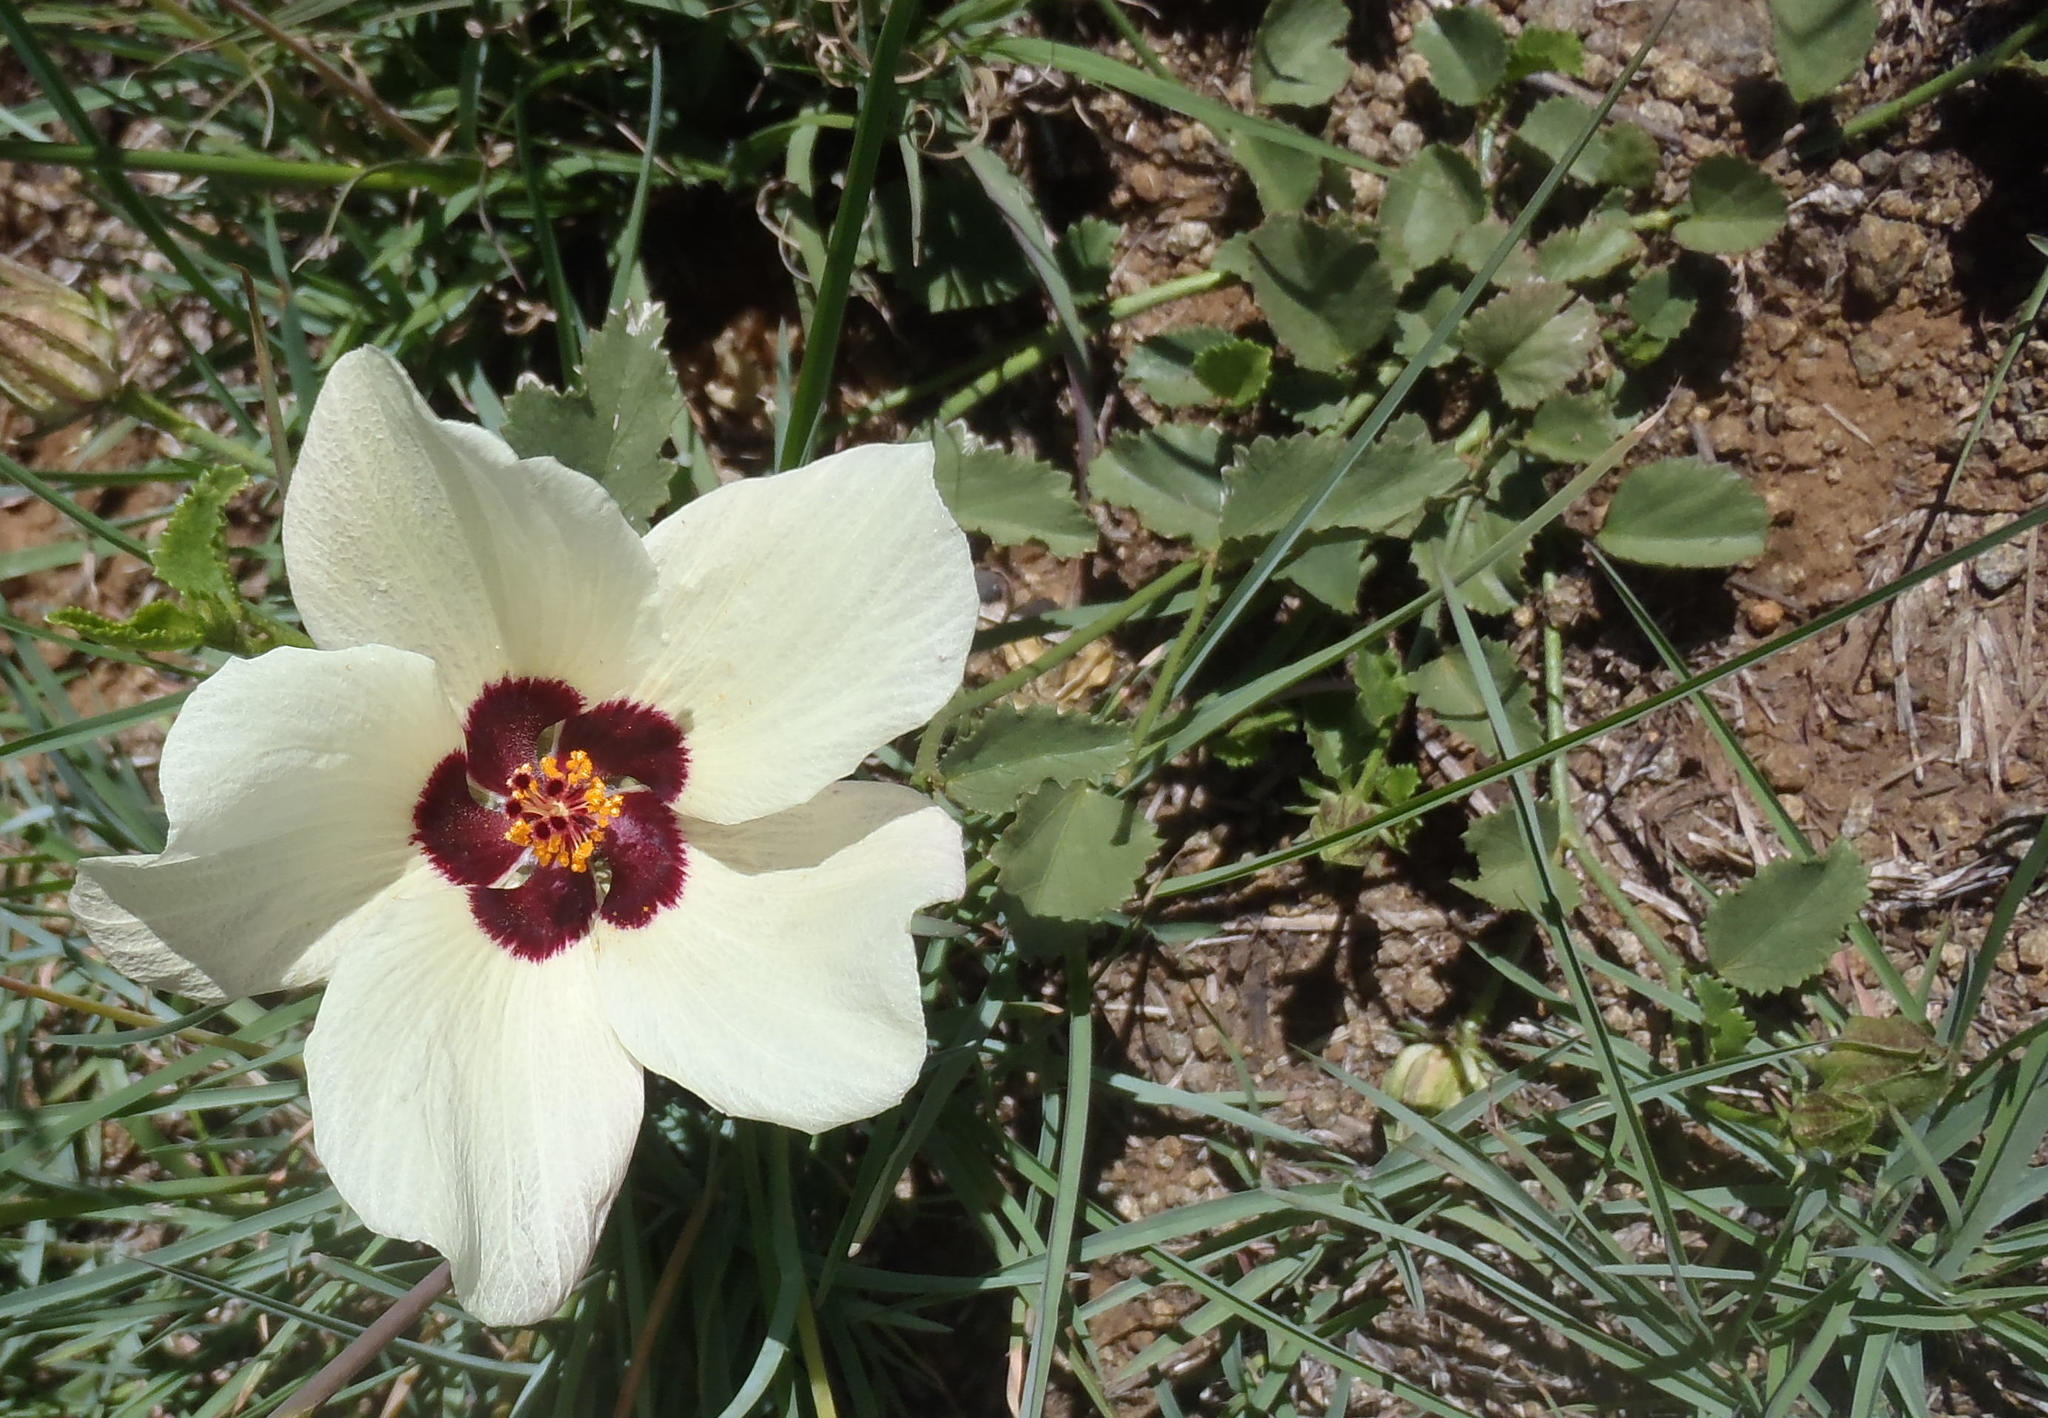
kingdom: Plantae
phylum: Tracheophyta
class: Magnoliopsida
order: Malvales
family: Malvaceae
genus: Hibiscus
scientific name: Hibiscus pusillus
